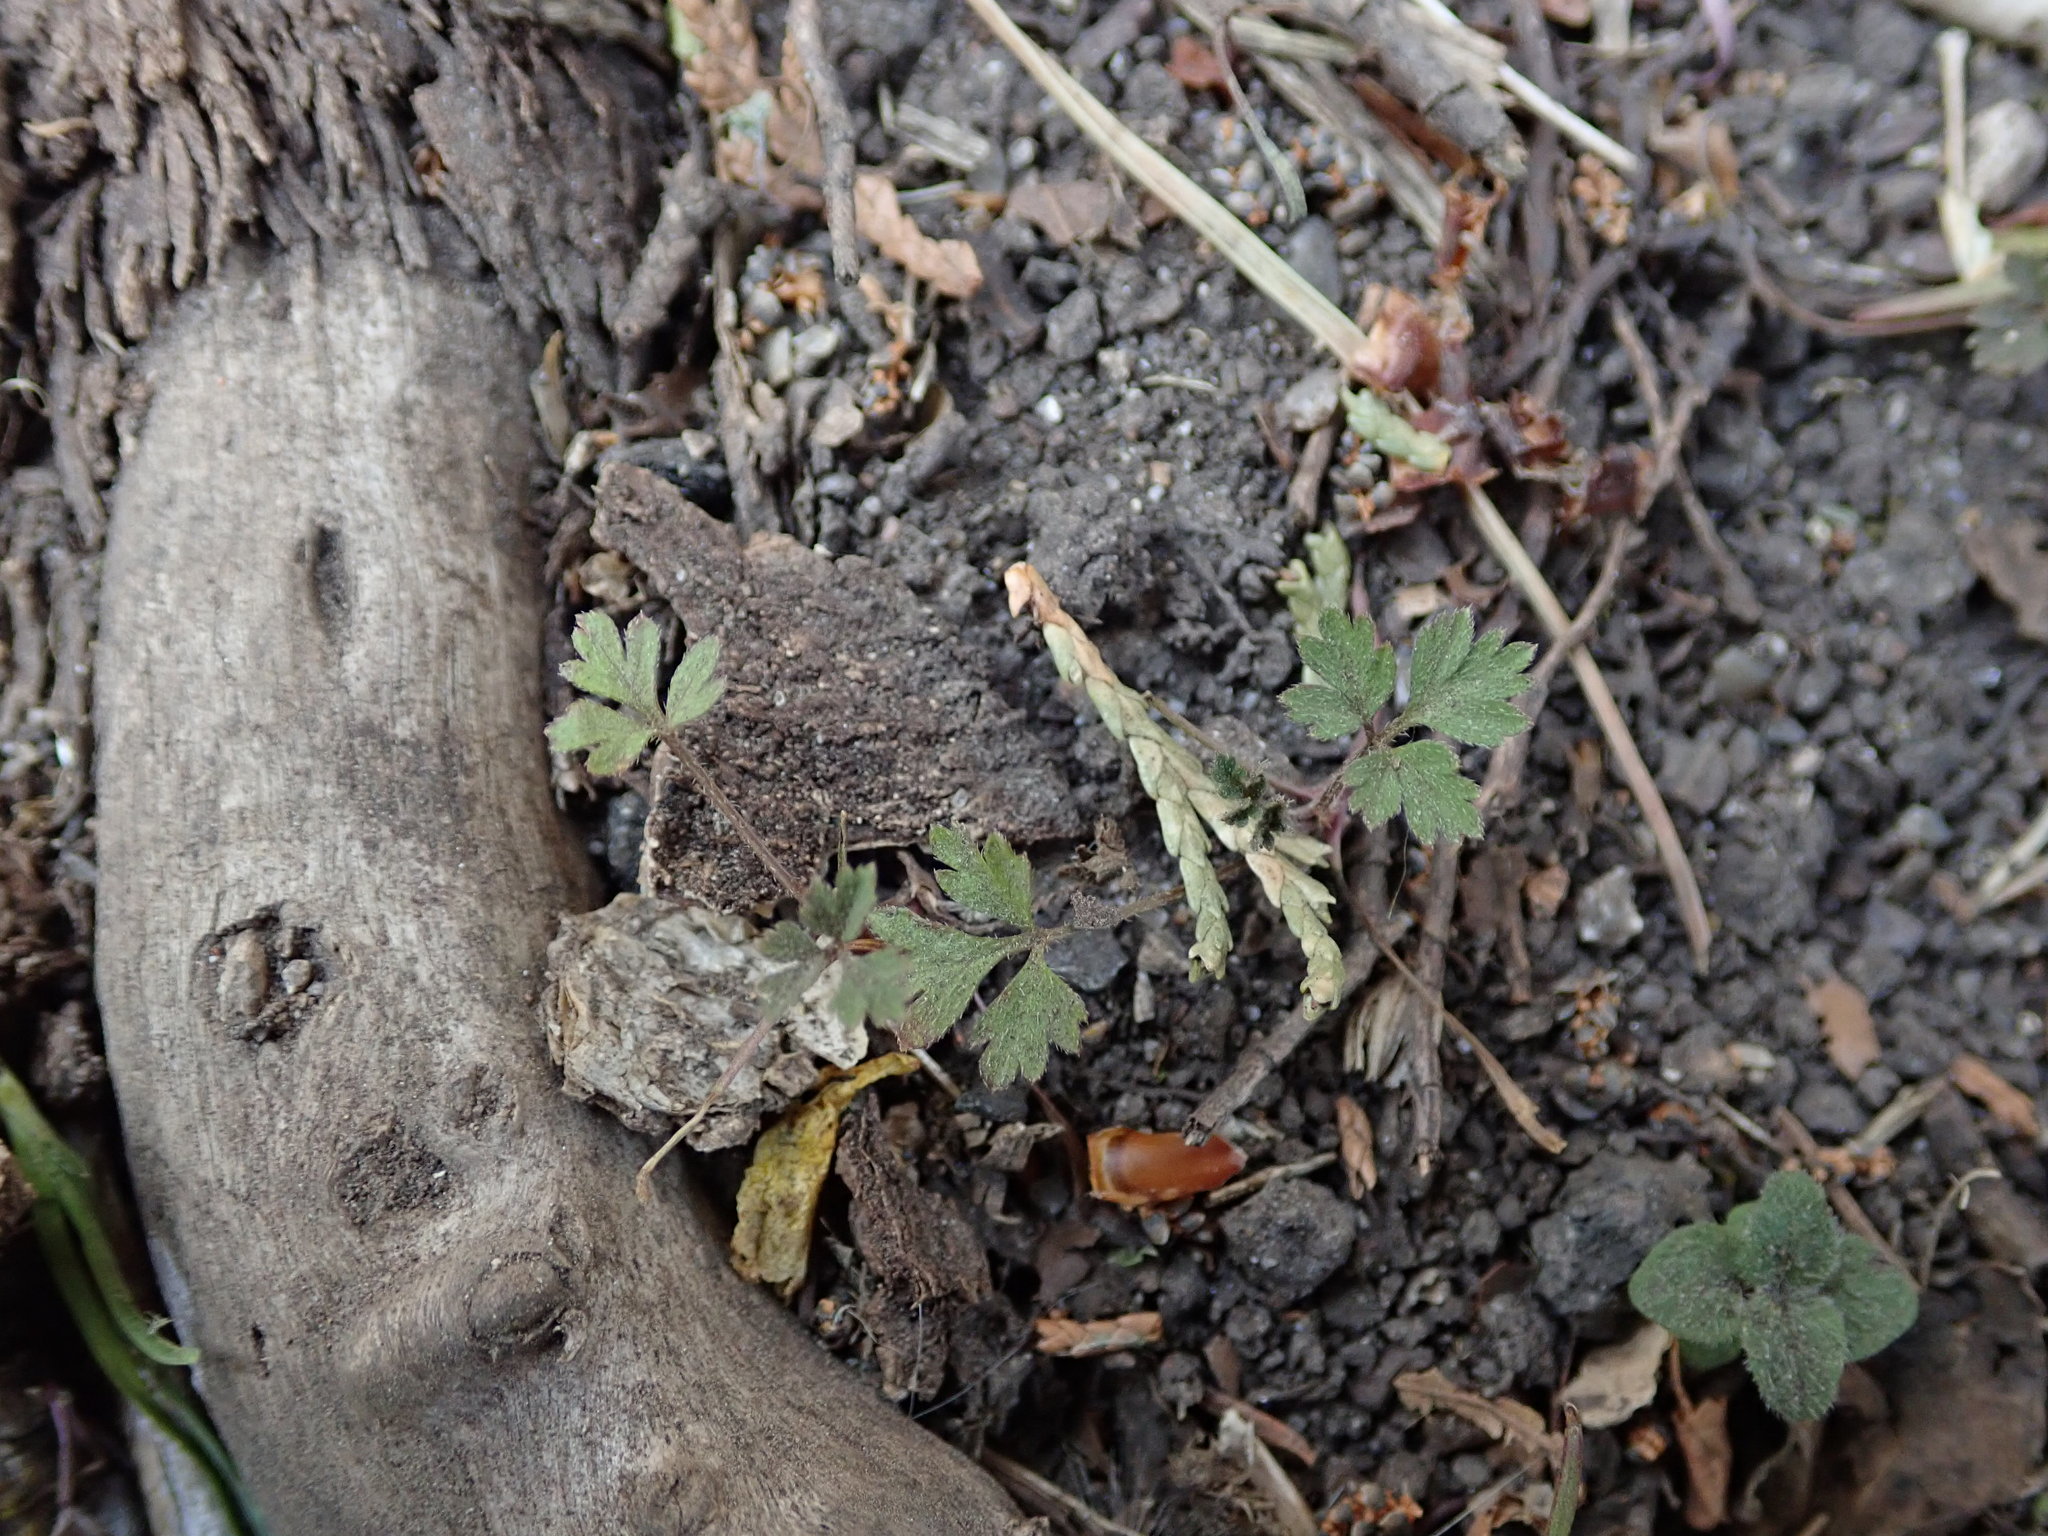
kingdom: Plantae
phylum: Tracheophyta
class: Magnoliopsida
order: Geraniales
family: Geraniaceae
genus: Geranium
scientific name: Geranium robertianum
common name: Herb-robert
